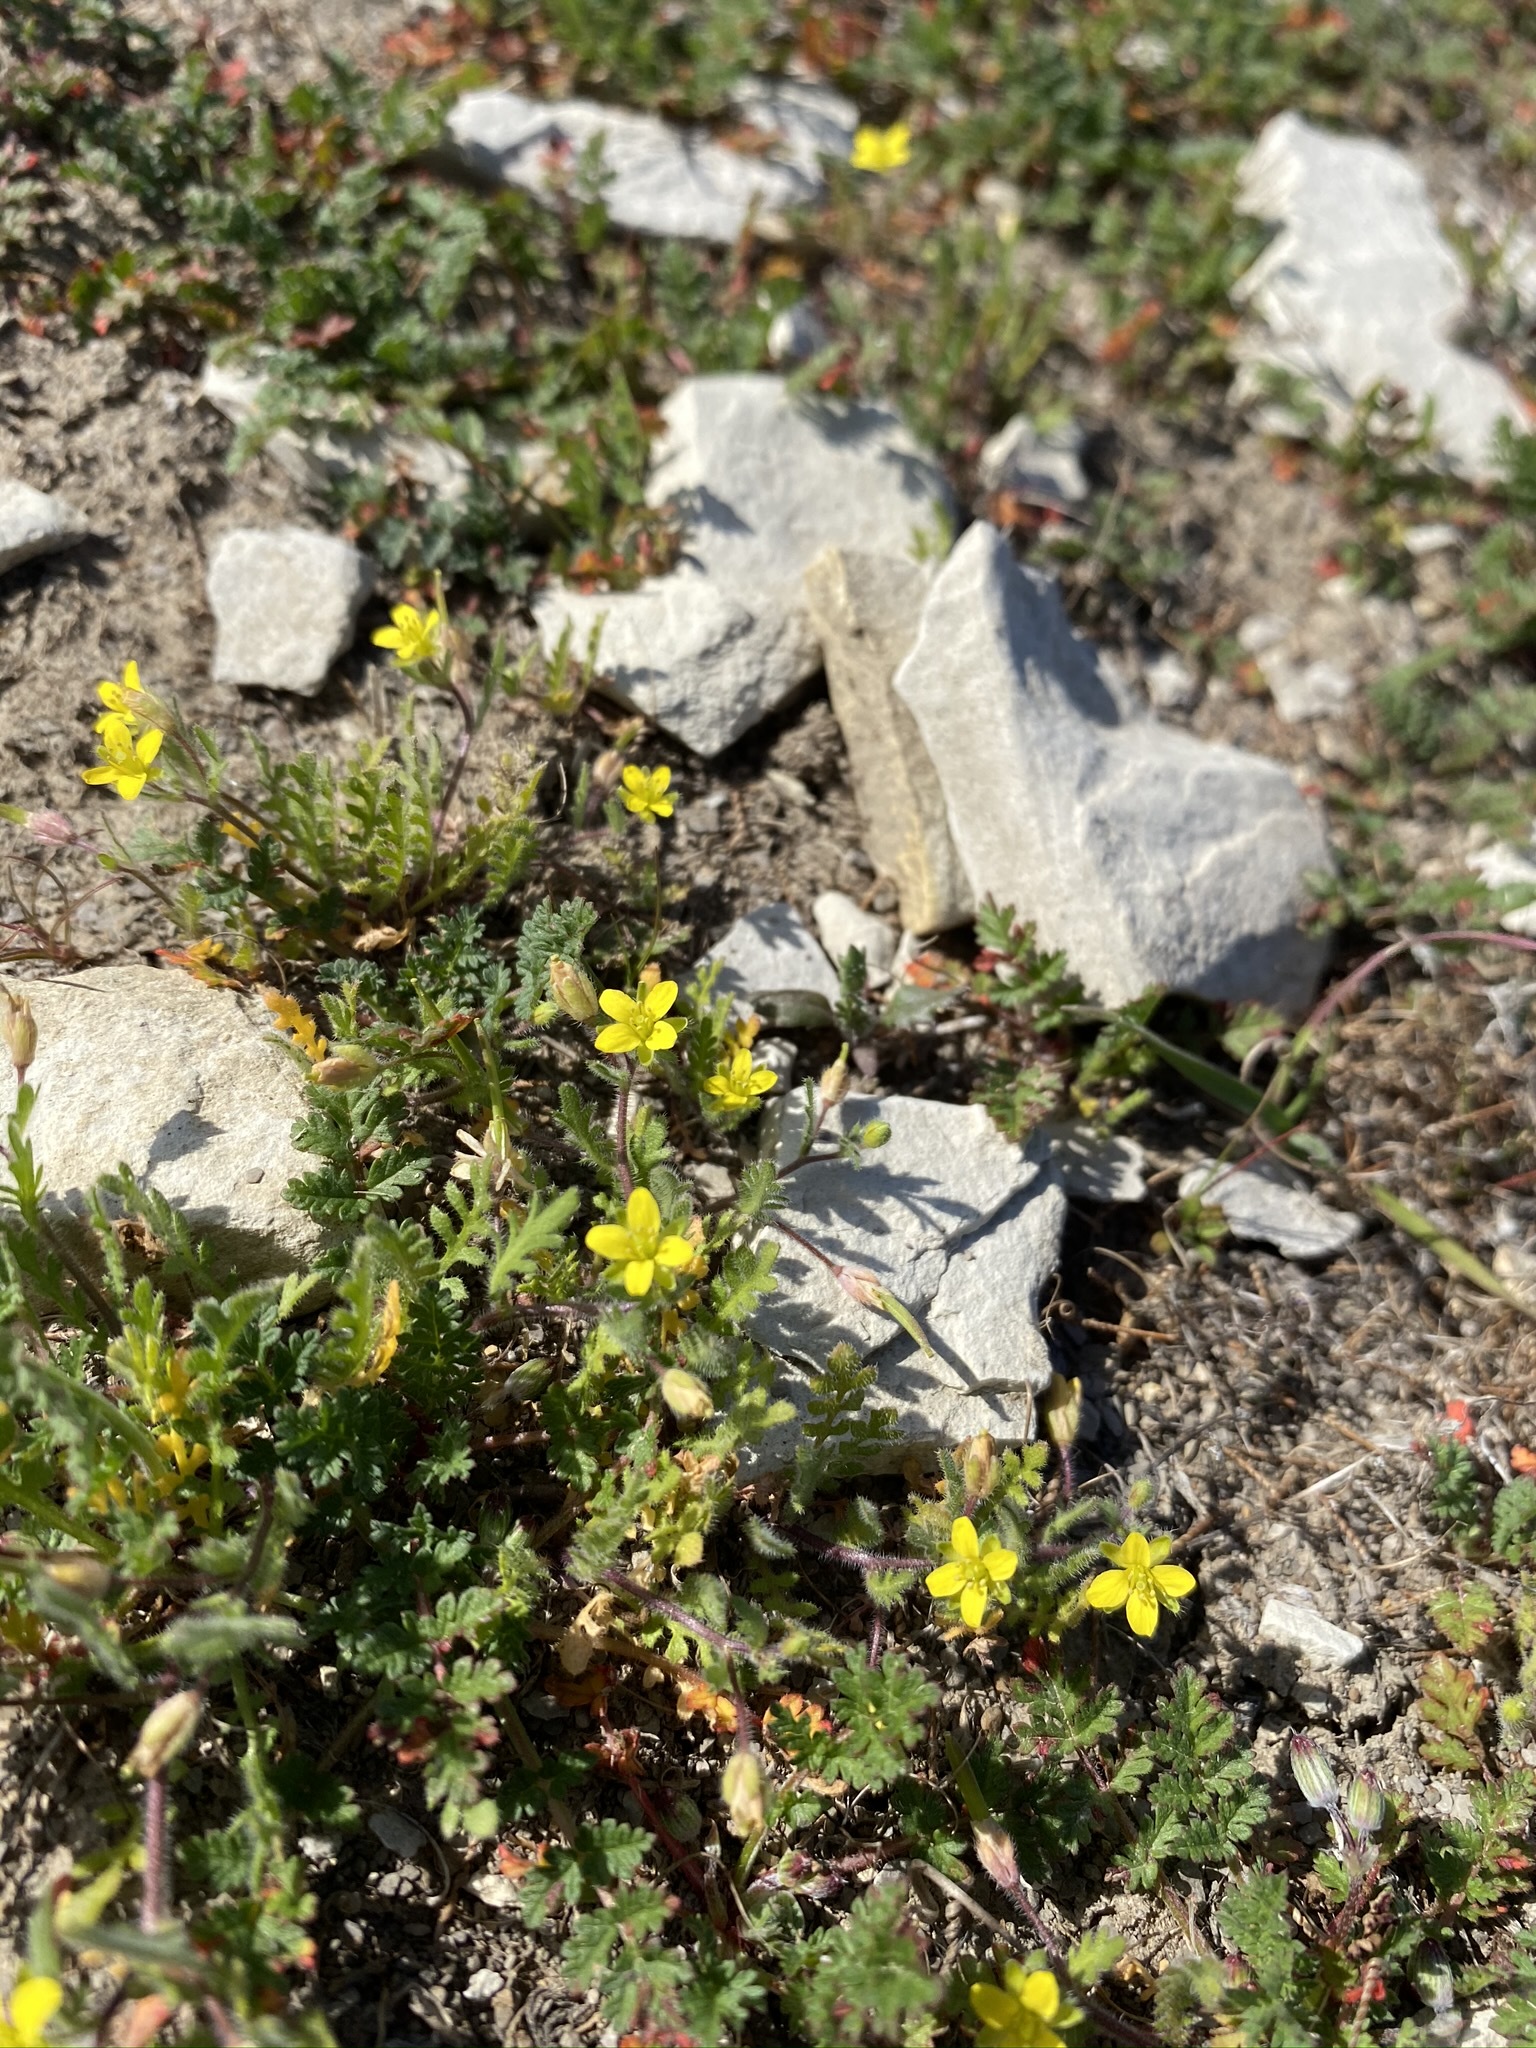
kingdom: Plantae
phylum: Tracheophyta
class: Magnoliopsida
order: Brassicales
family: Brassicaceae
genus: Tropidocarpum
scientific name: Tropidocarpum gracile
